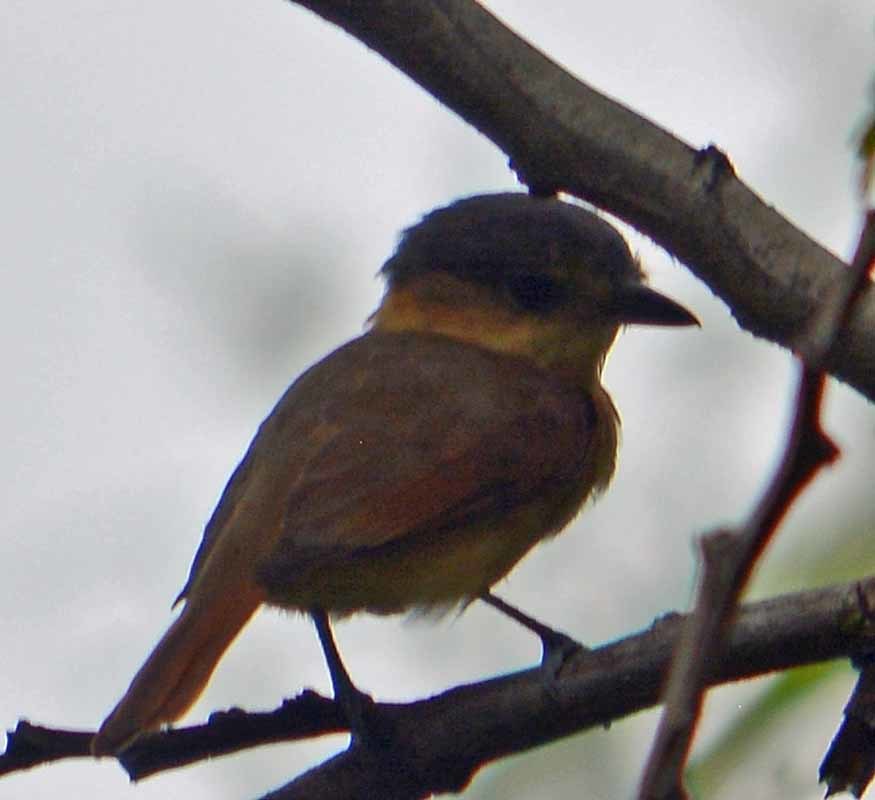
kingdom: Animalia
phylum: Chordata
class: Aves
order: Passeriformes
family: Cotingidae
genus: Pachyramphus
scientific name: Pachyramphus aglaiae
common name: Rose-throated becard
